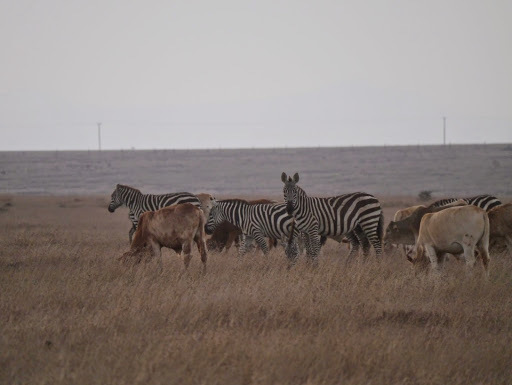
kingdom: Animalia
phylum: Chordata
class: Mammalia
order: Perissodactyla
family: Equidae
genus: Equus
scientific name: Equus quagga
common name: Plains zebra
